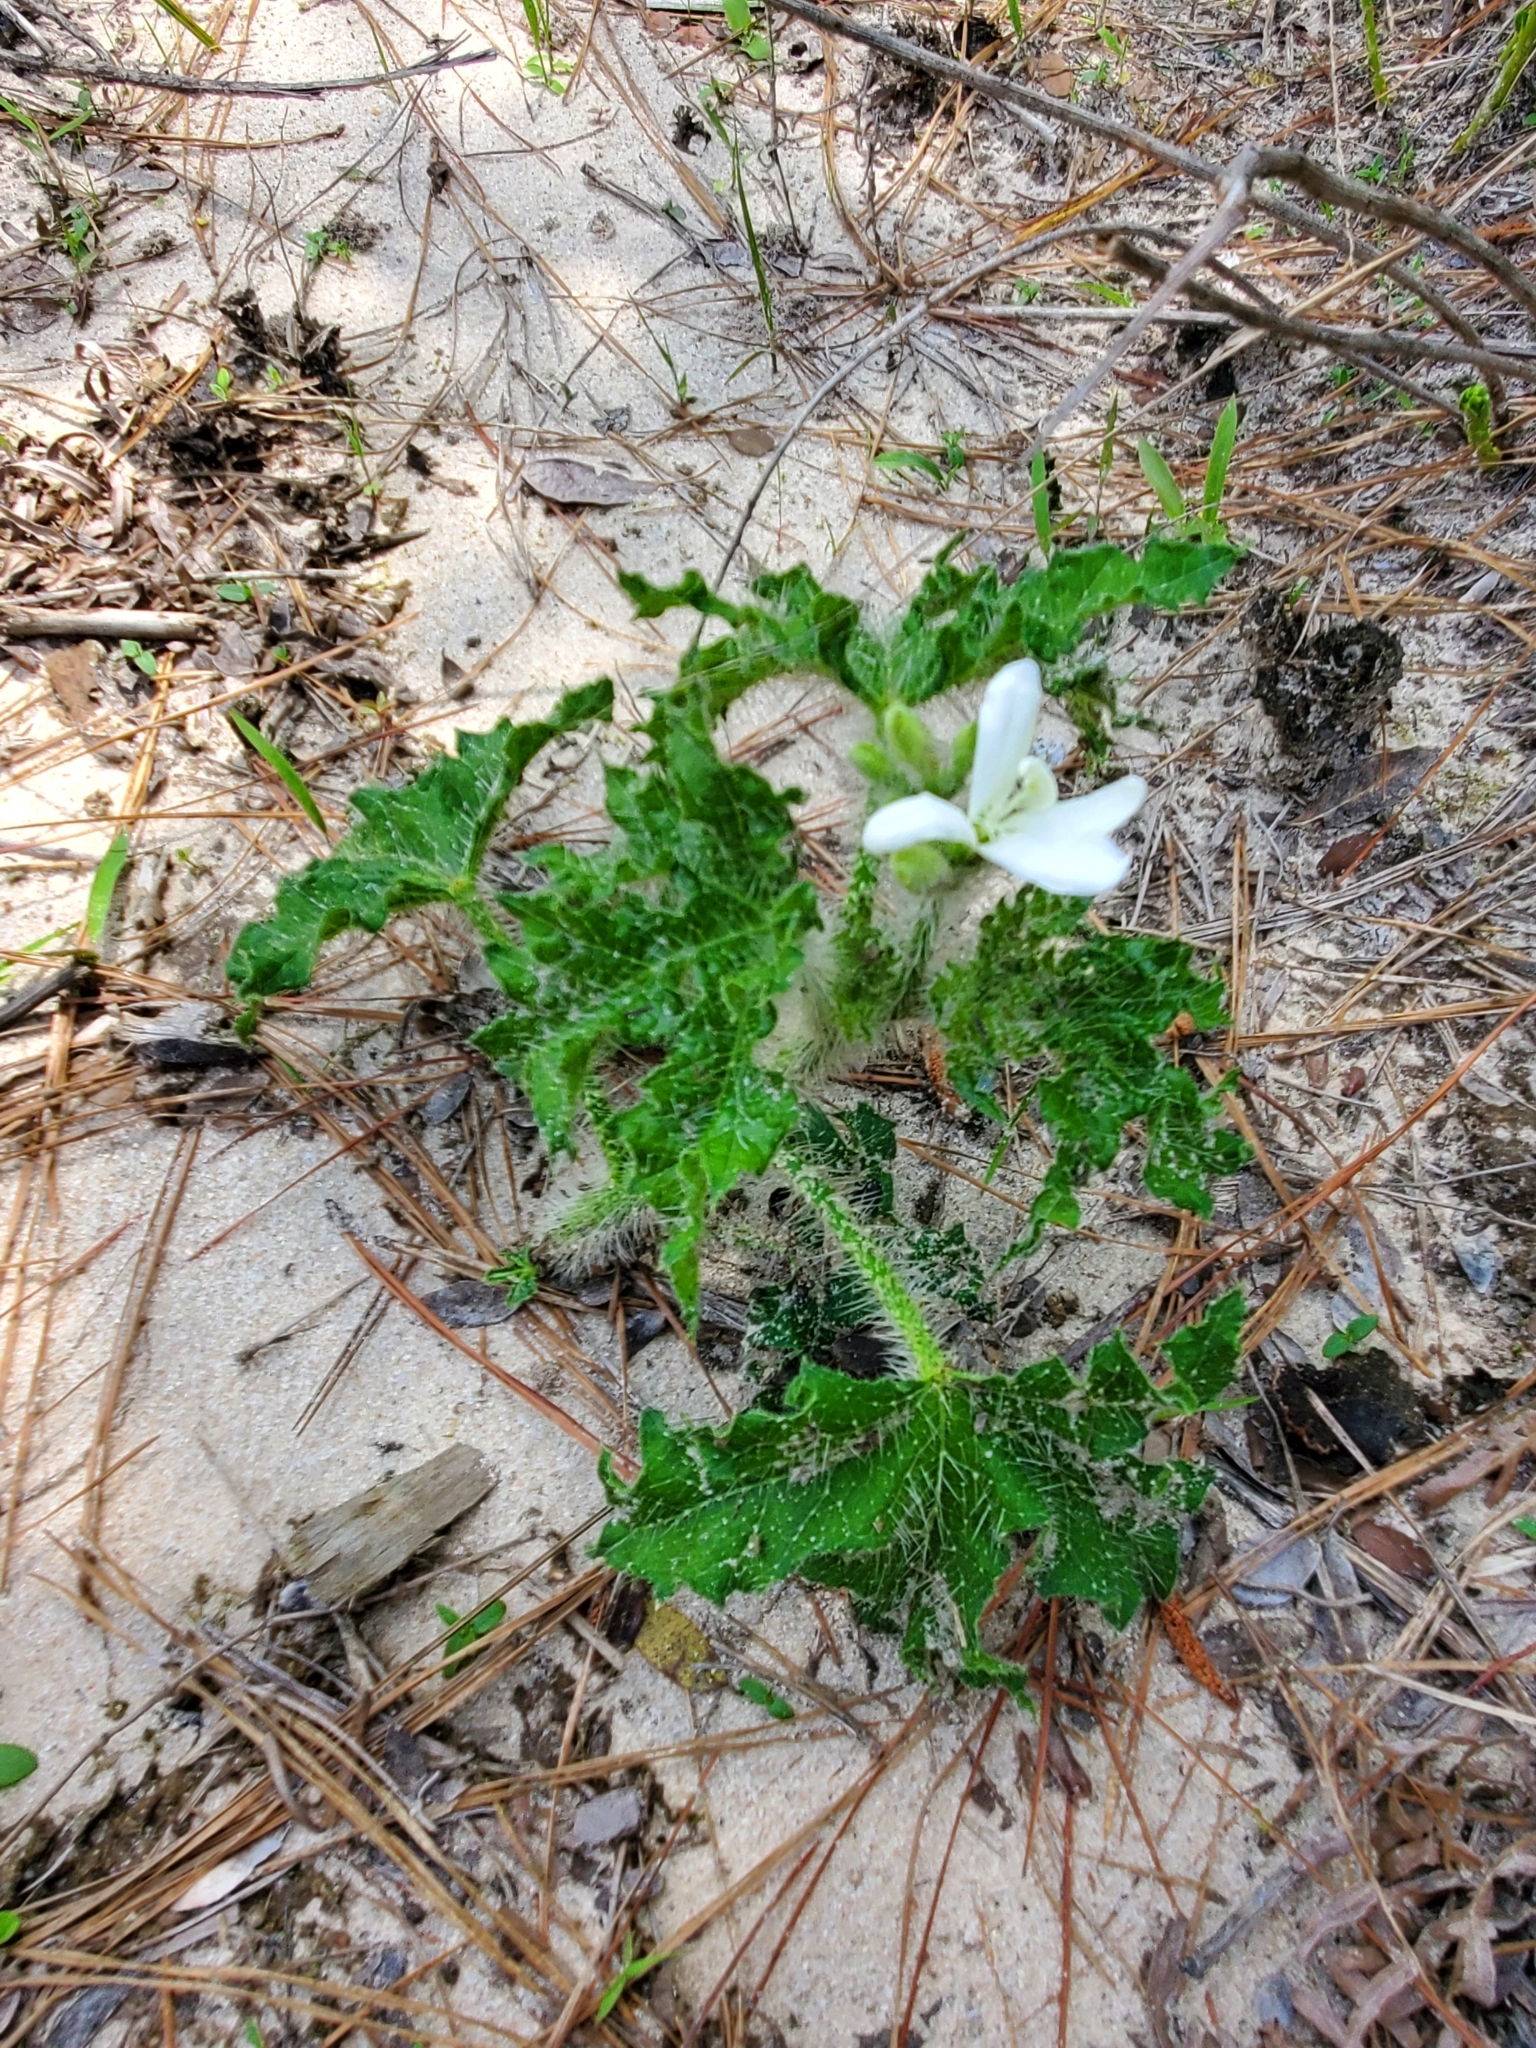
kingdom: Plantae
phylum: Tracheophyta
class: Magnoliopsida
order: Malpighiales
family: Euphorbiaceae
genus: Cnidoscolus
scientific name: Cnidoscolus texanus
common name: Texas bull-nettle
